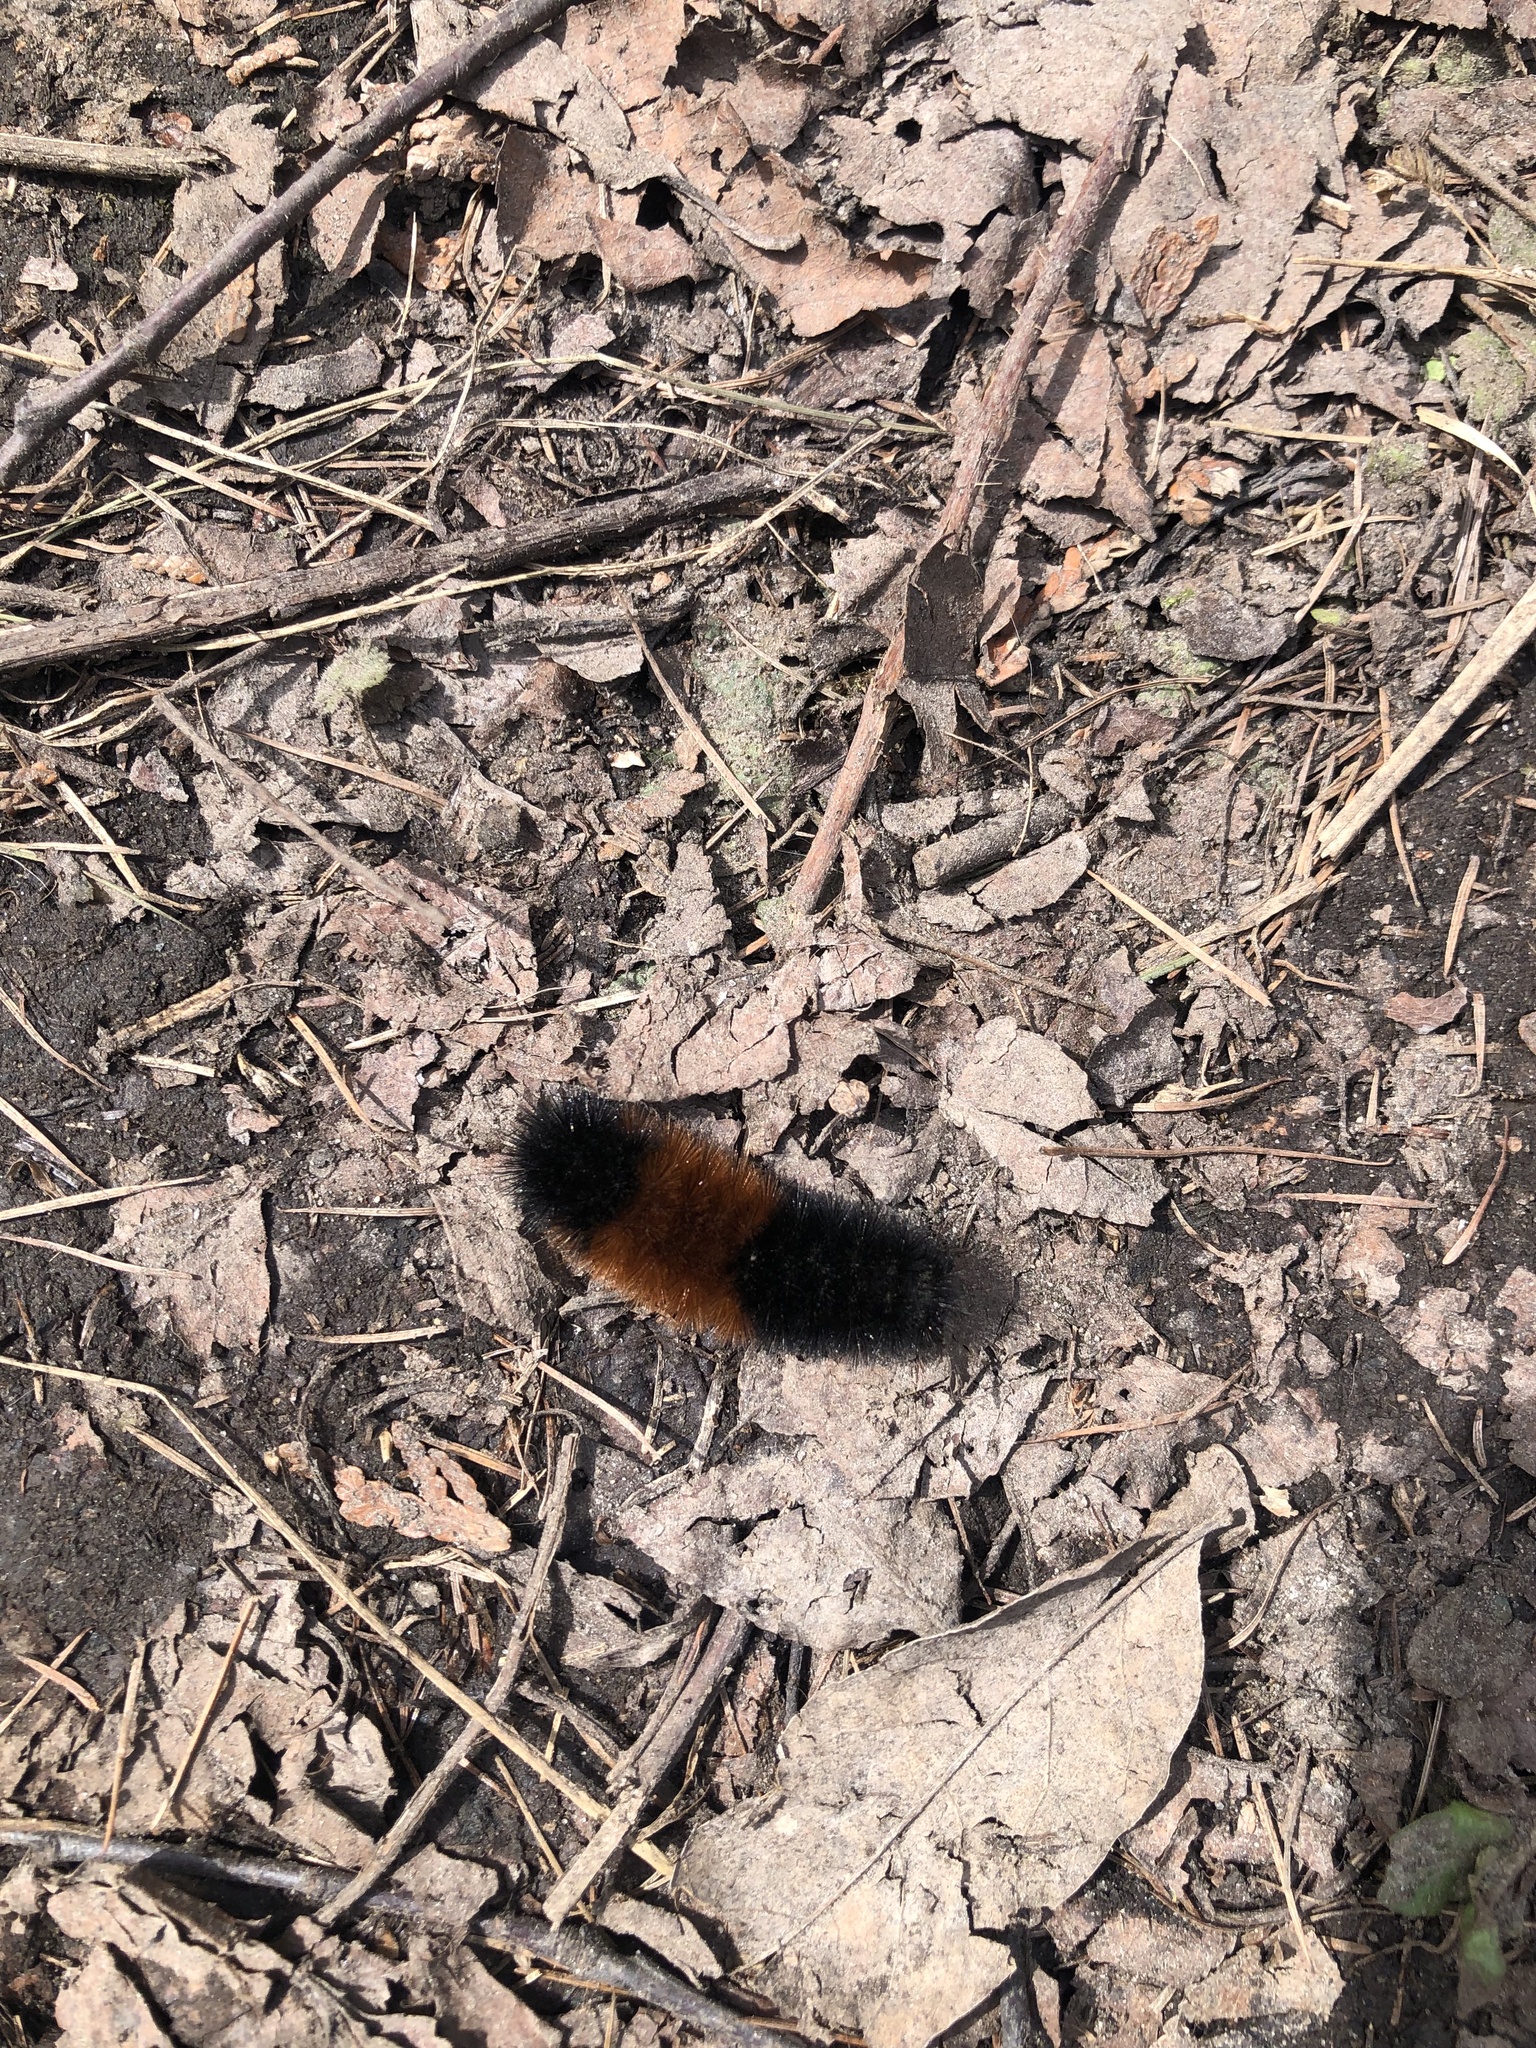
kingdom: Animalia
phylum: Arthropoda
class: Insecta
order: Lepidoptera
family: Erebidae
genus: Pyrrharctia
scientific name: Pyrrharctia isabella
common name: Isabella tiger moth
